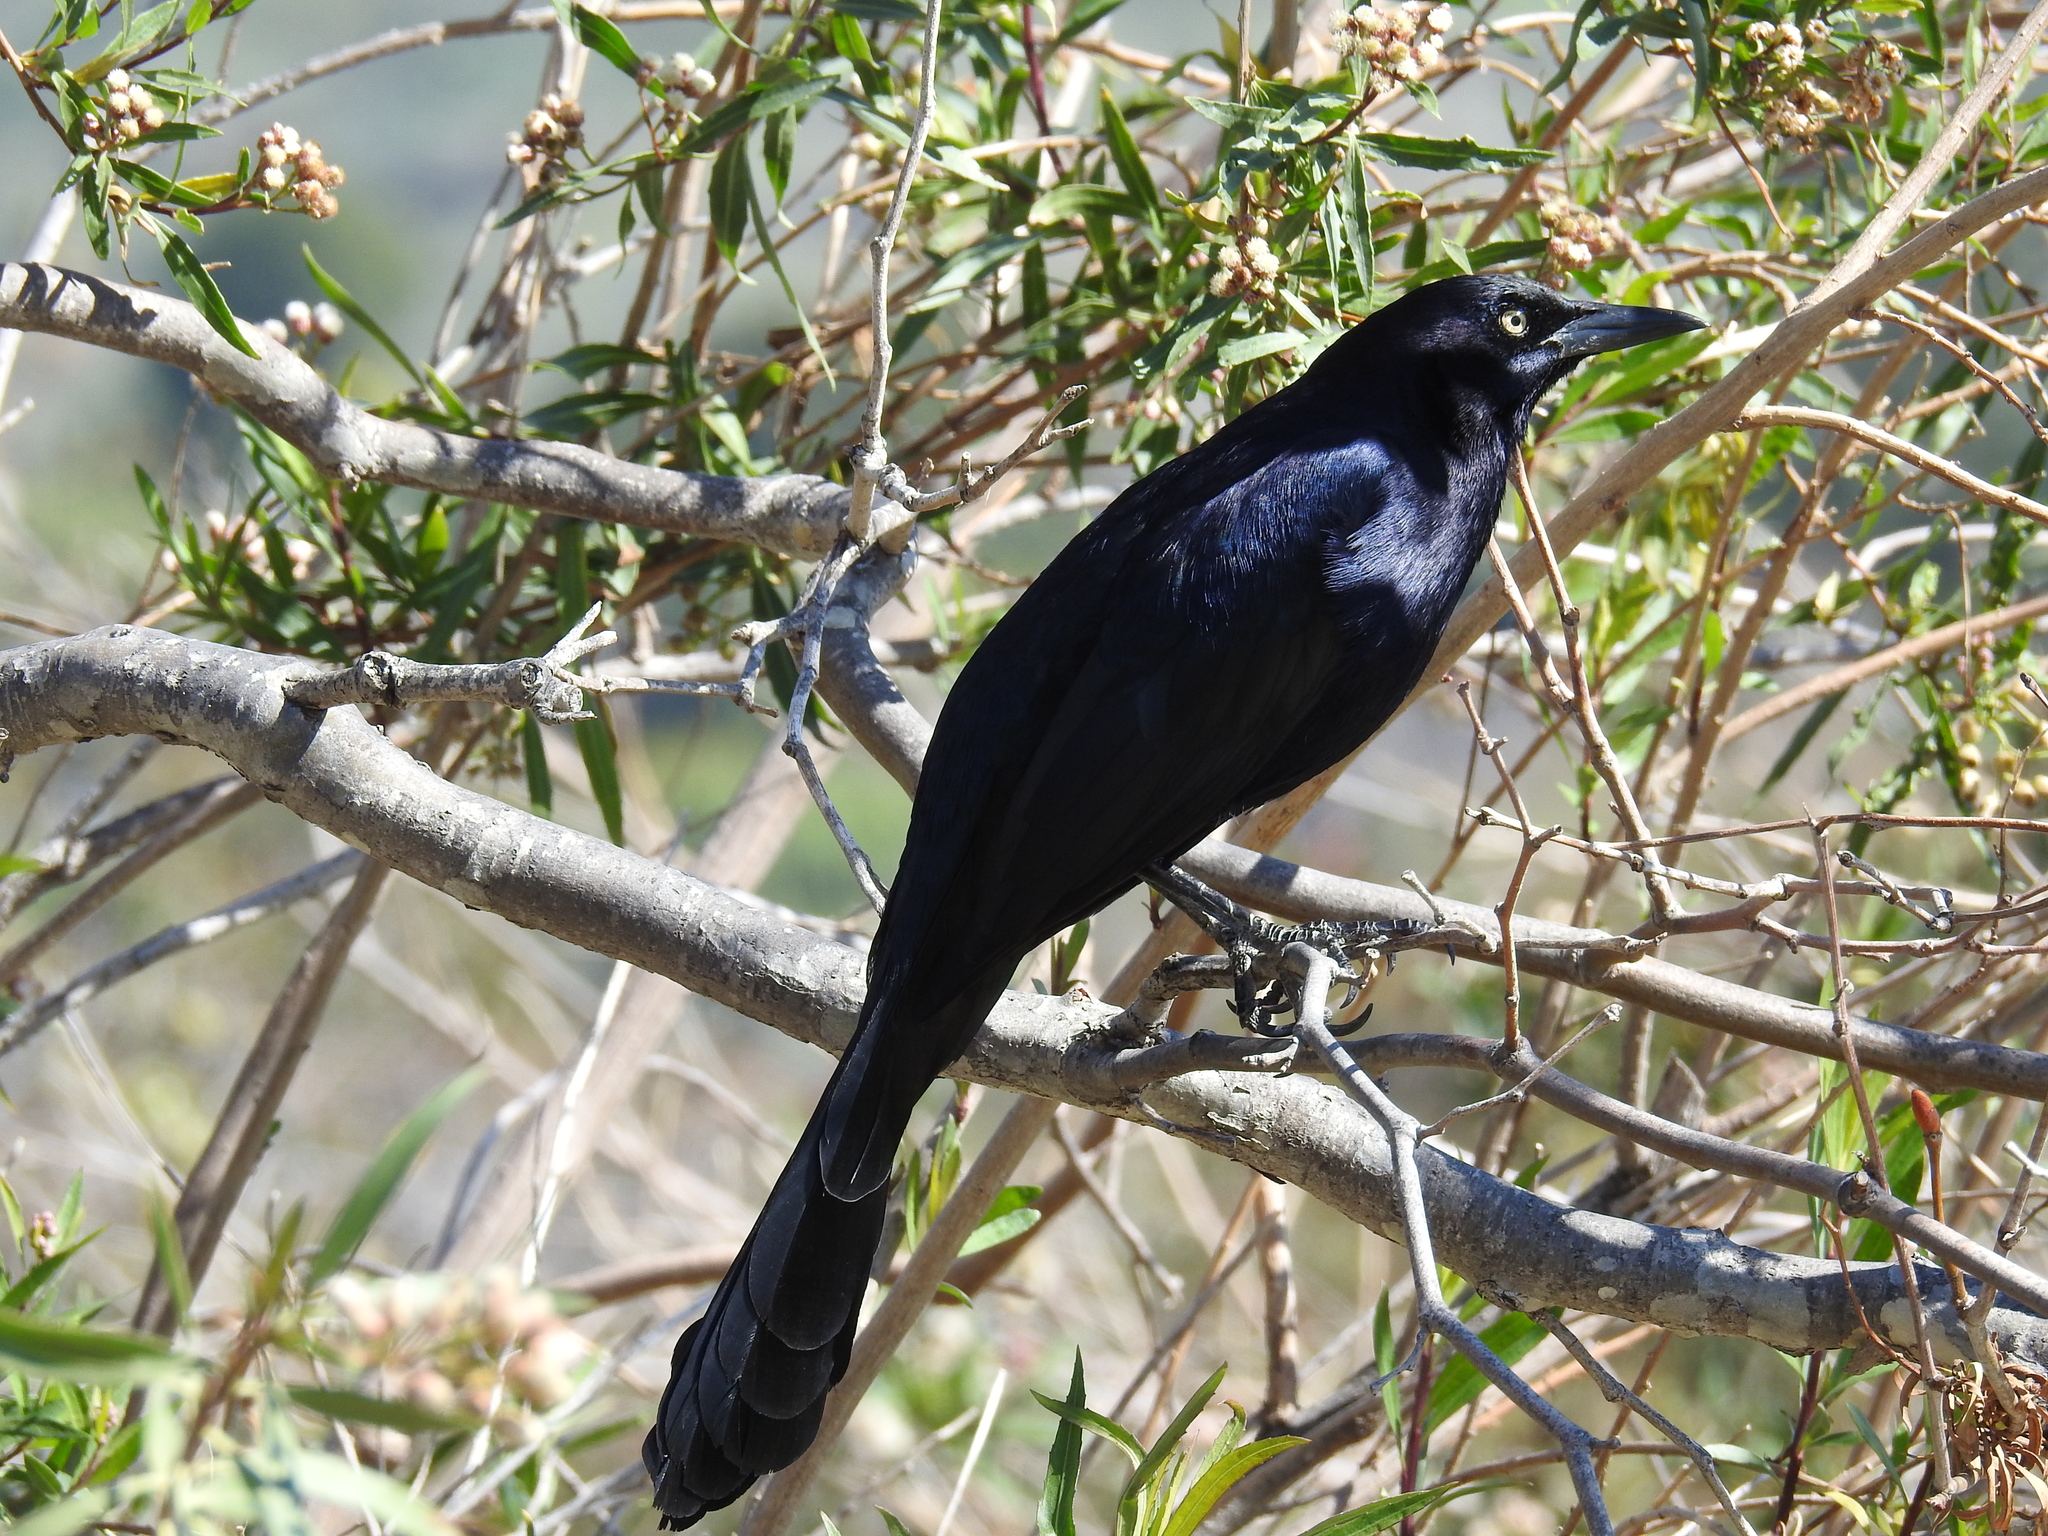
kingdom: Animalia
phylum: Chordata
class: Aves
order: Passeriformes
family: Icteridae
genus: Quiscalus
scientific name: Quiscalus mexicanus
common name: Great-tailed grackle
